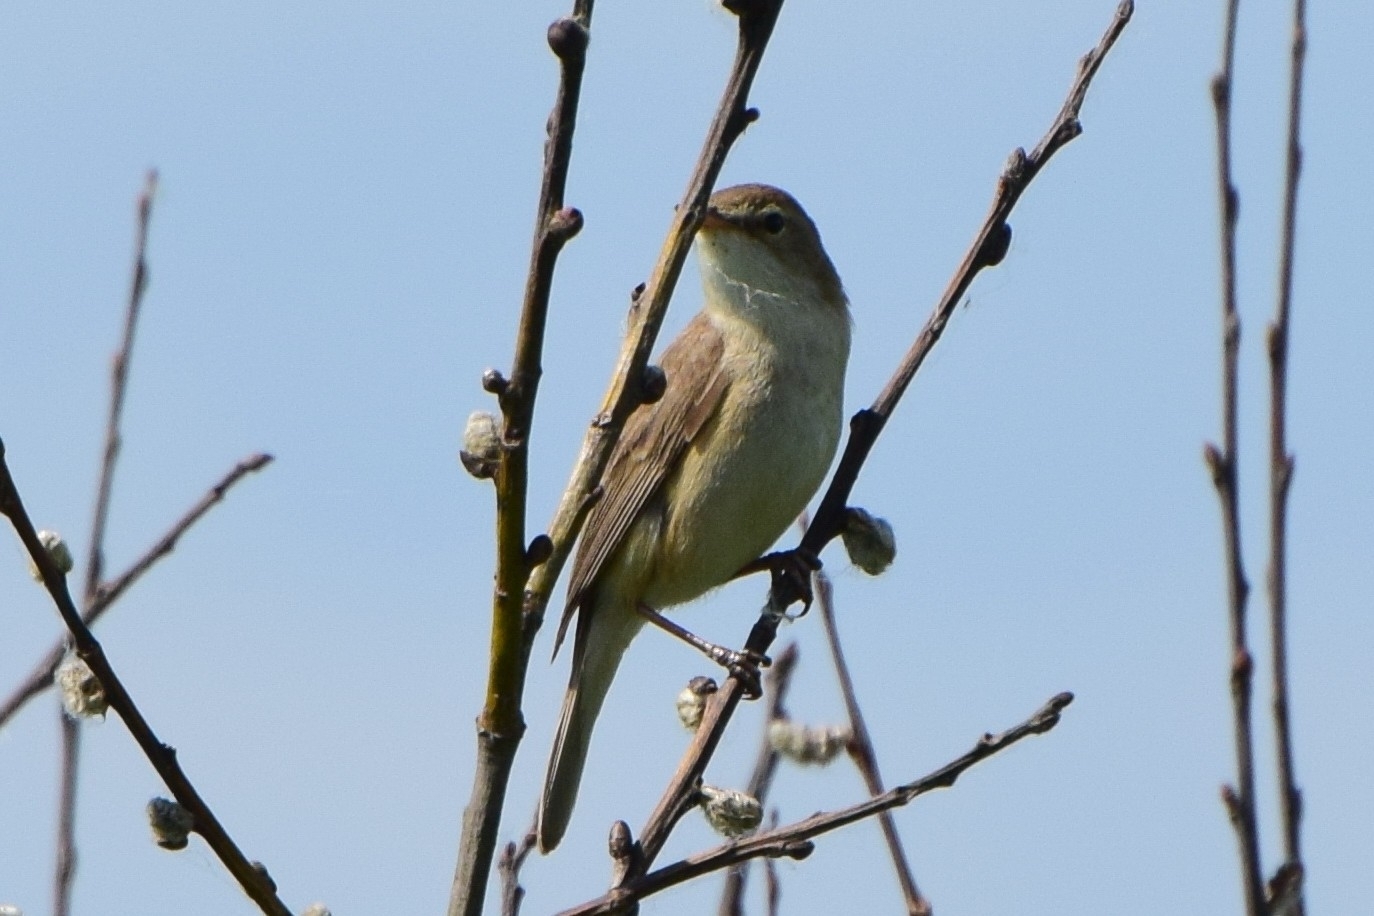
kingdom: Animalia
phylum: Chordata
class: Aves
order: Passeriformes
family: Acrocephalidae
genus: Iduna
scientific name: Iduna caligata
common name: Booted warbler
